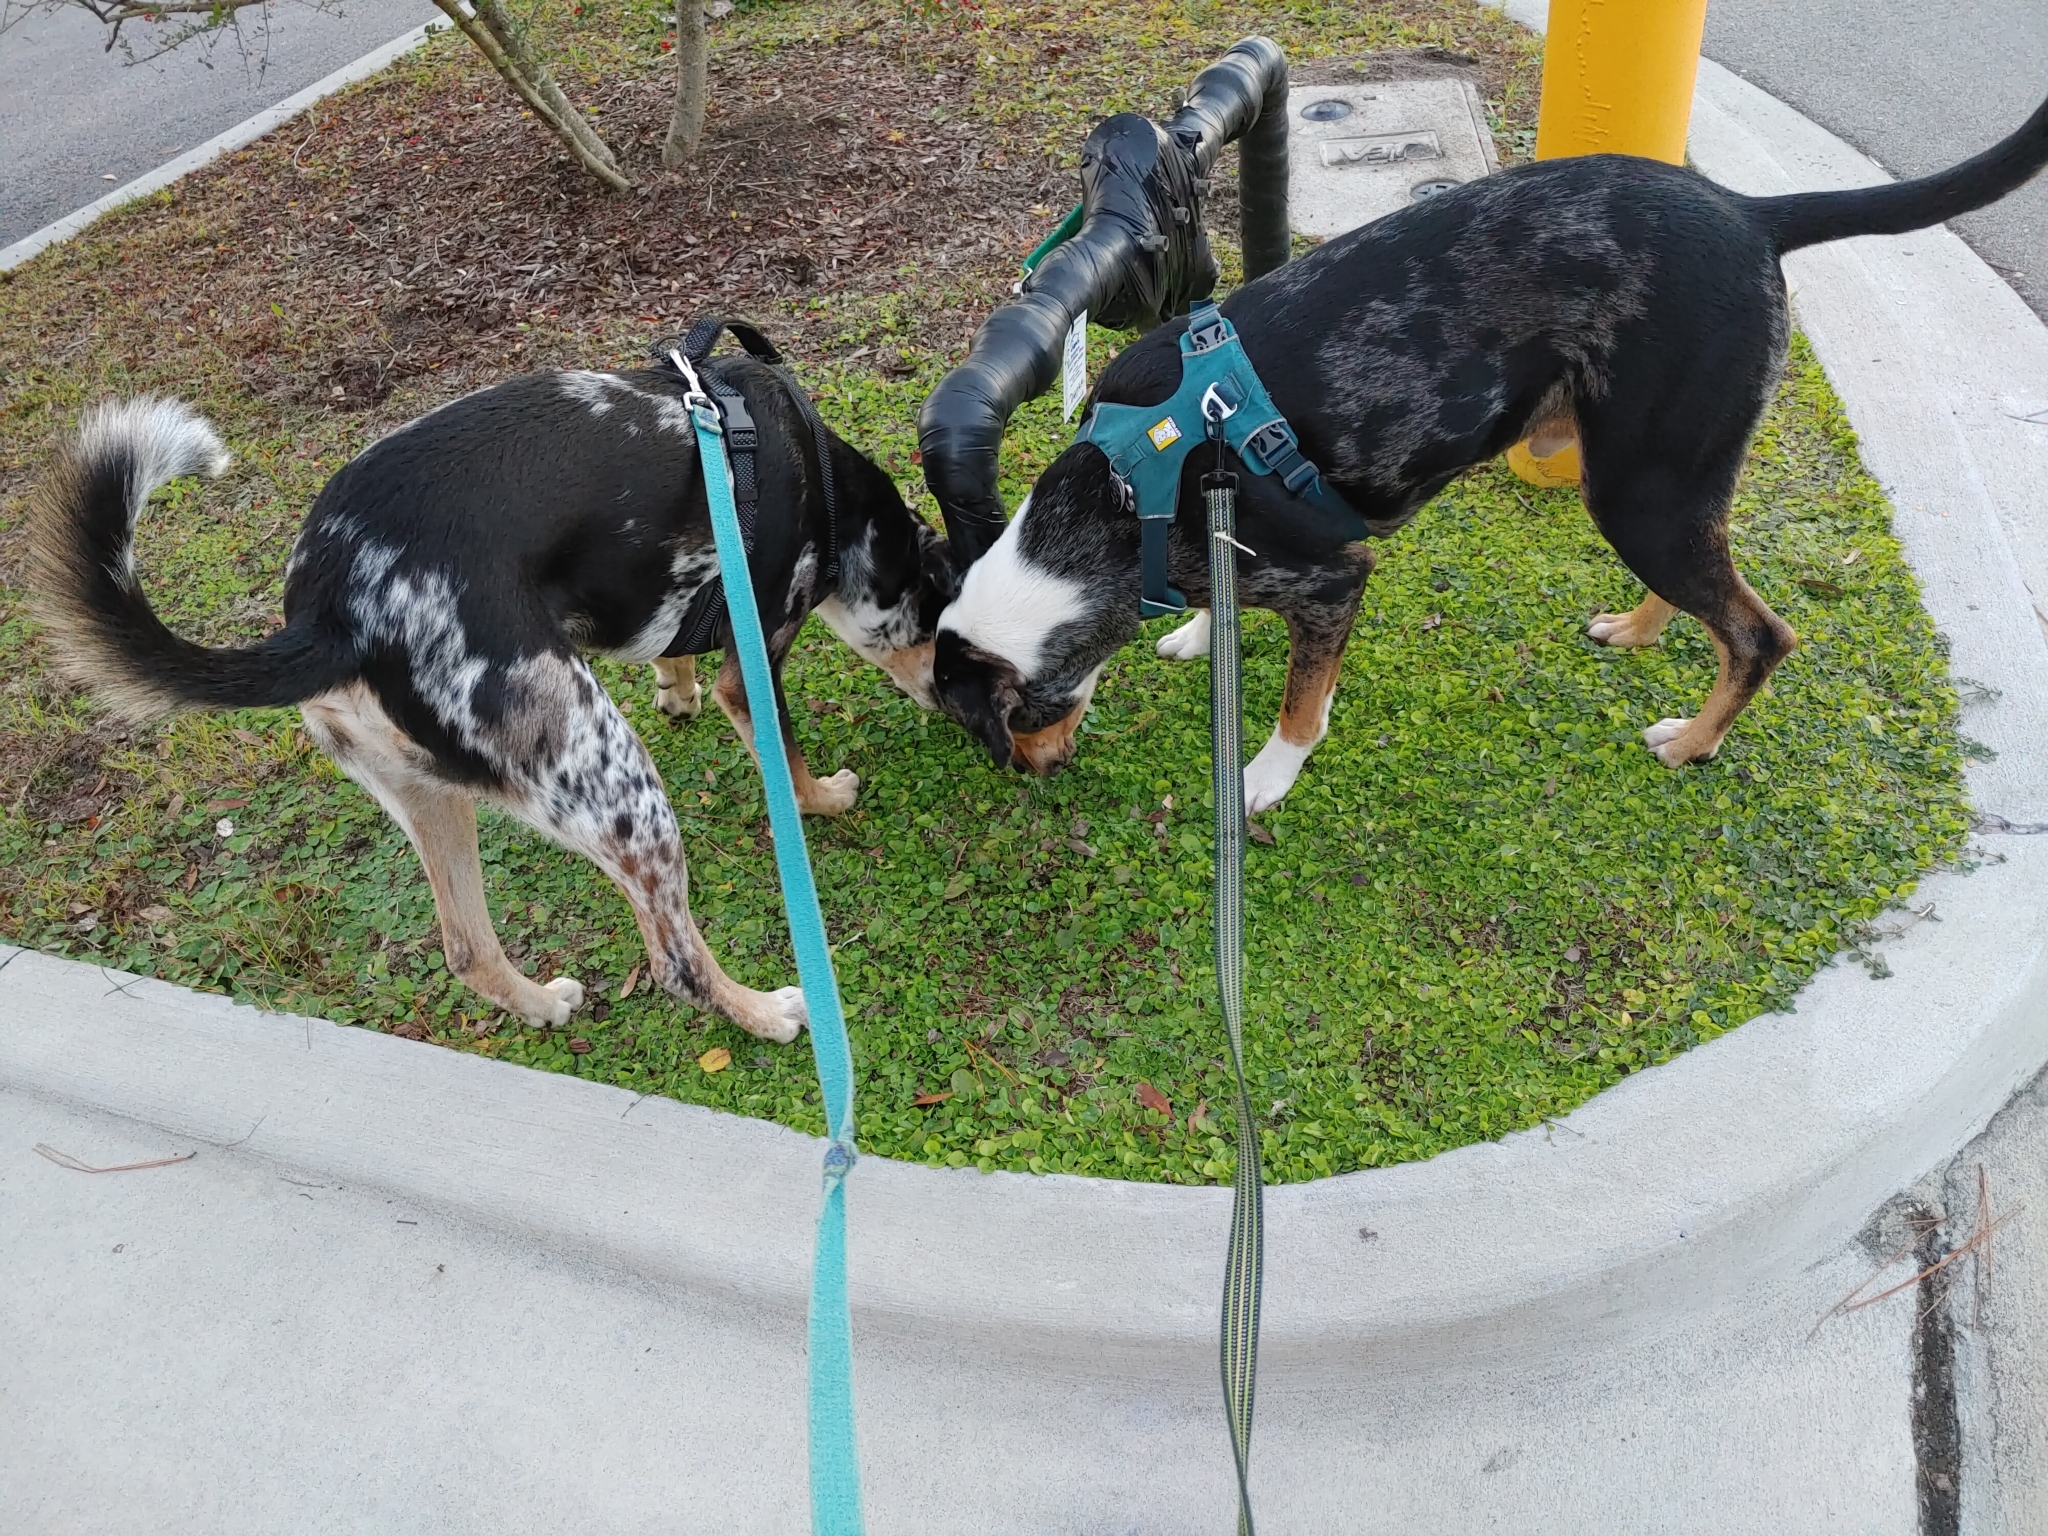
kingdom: Plantae
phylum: Tracheophyta
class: Magnoliopsida
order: Solanales
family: Convolvulaceae
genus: Dichondra
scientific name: Dichondra carolinensis
